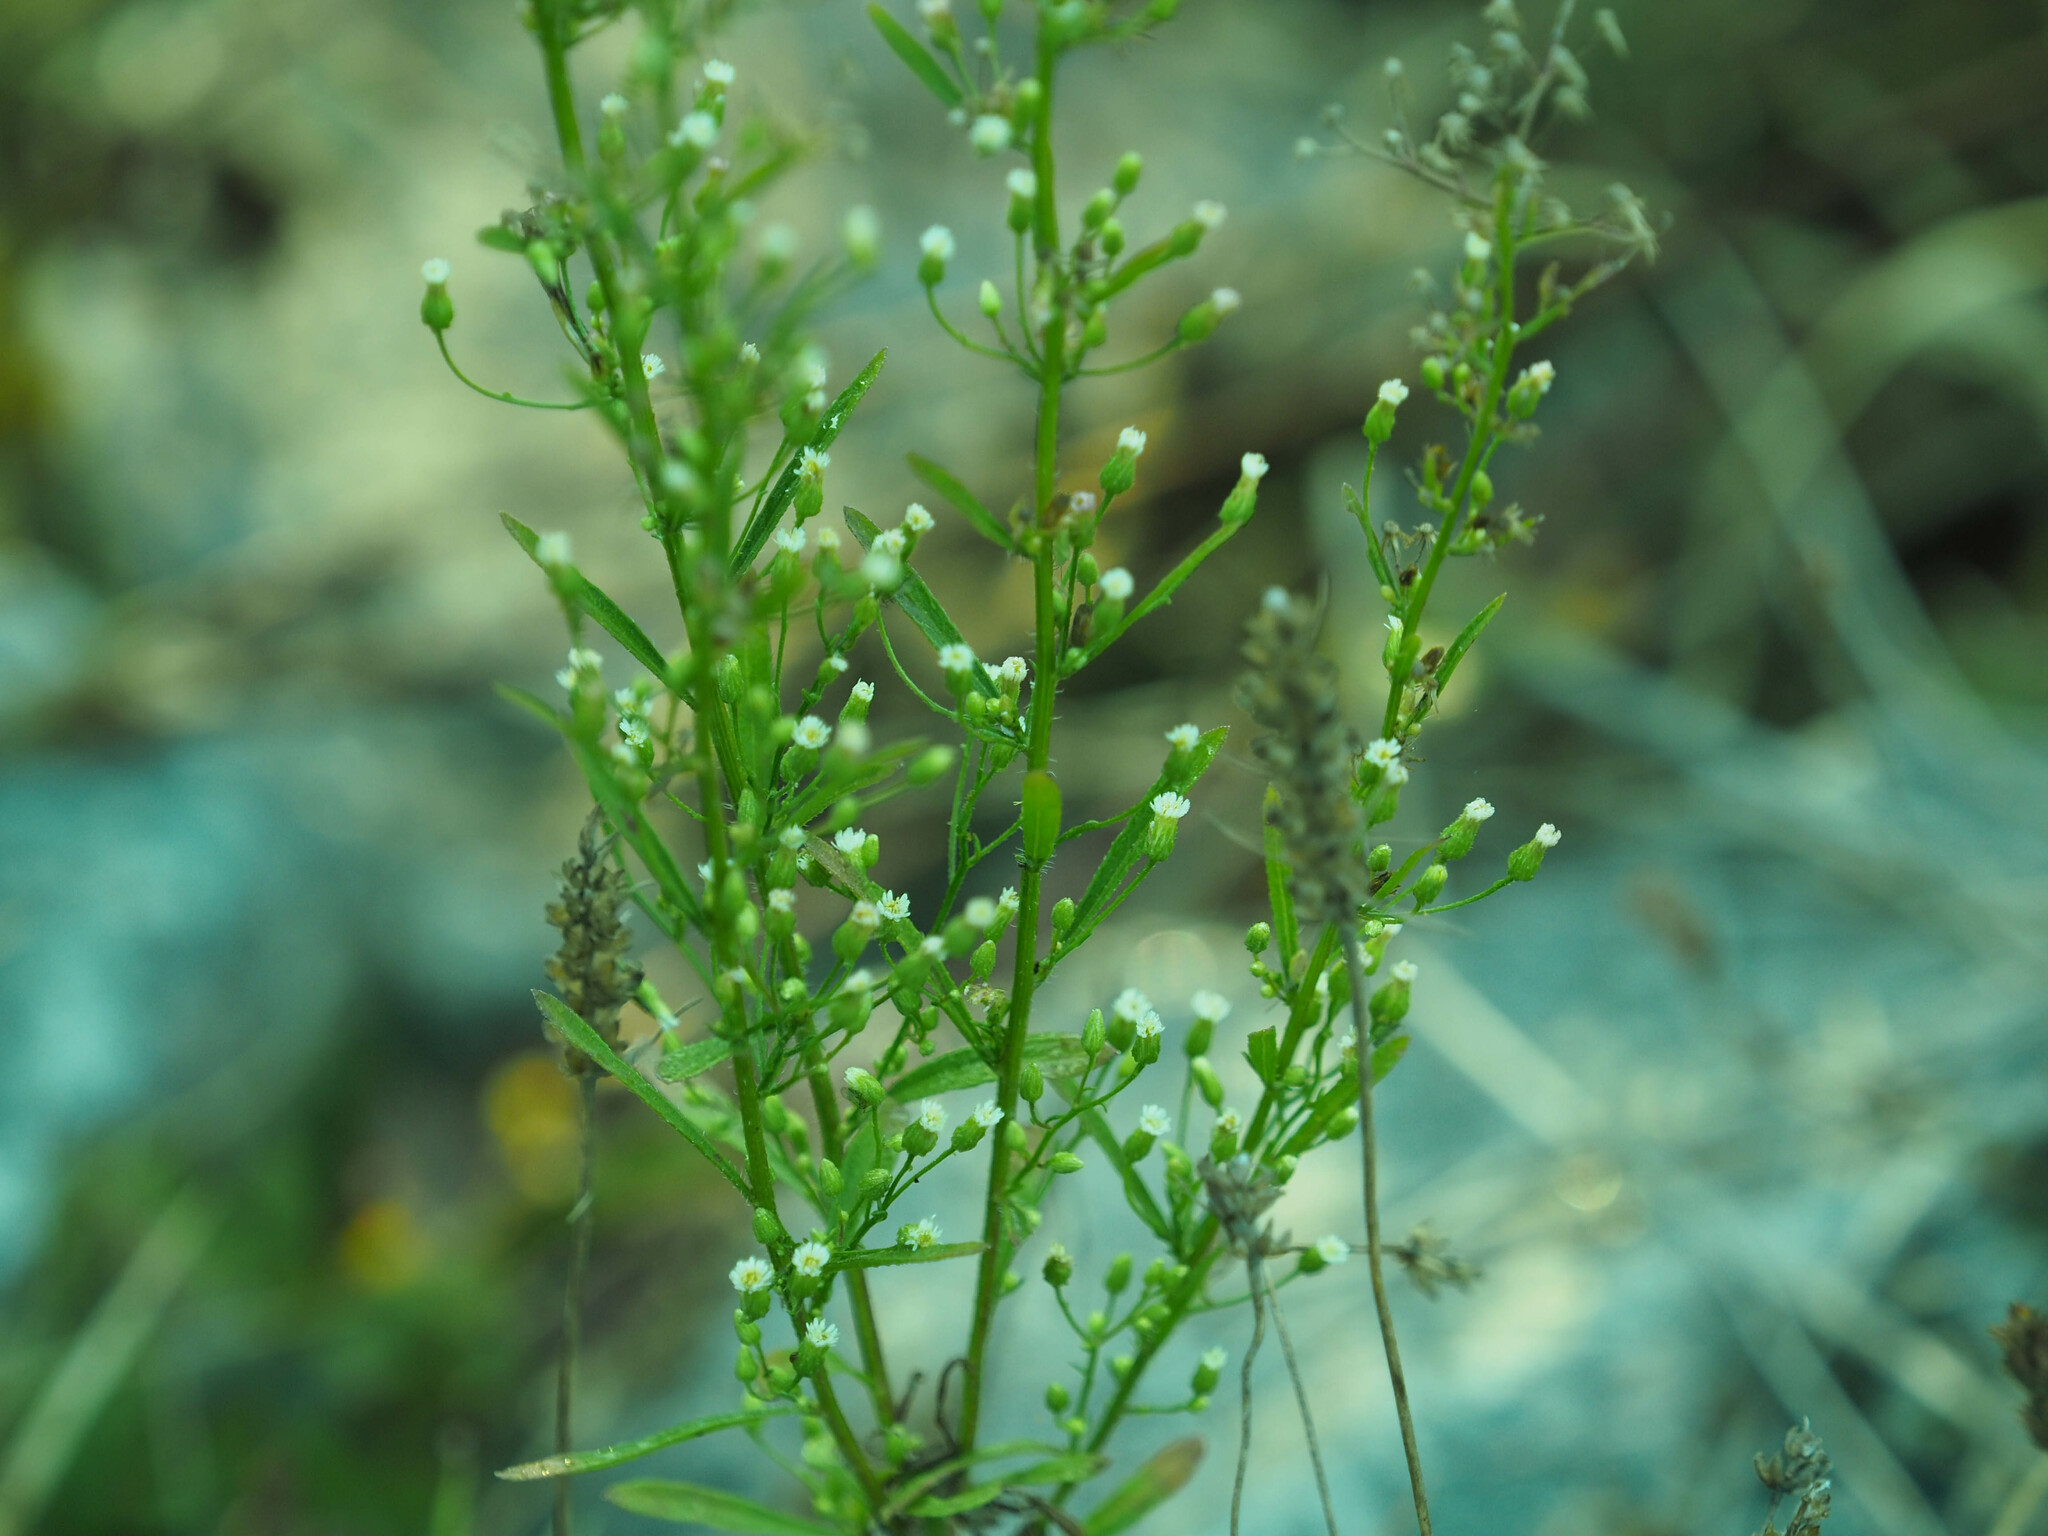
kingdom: Plantae
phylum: Tracheophyta
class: Magnoliopsida
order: Asterales
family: Asteraceae
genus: Erigeron
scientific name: Erigeron canadensis
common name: Canadian fleabane
